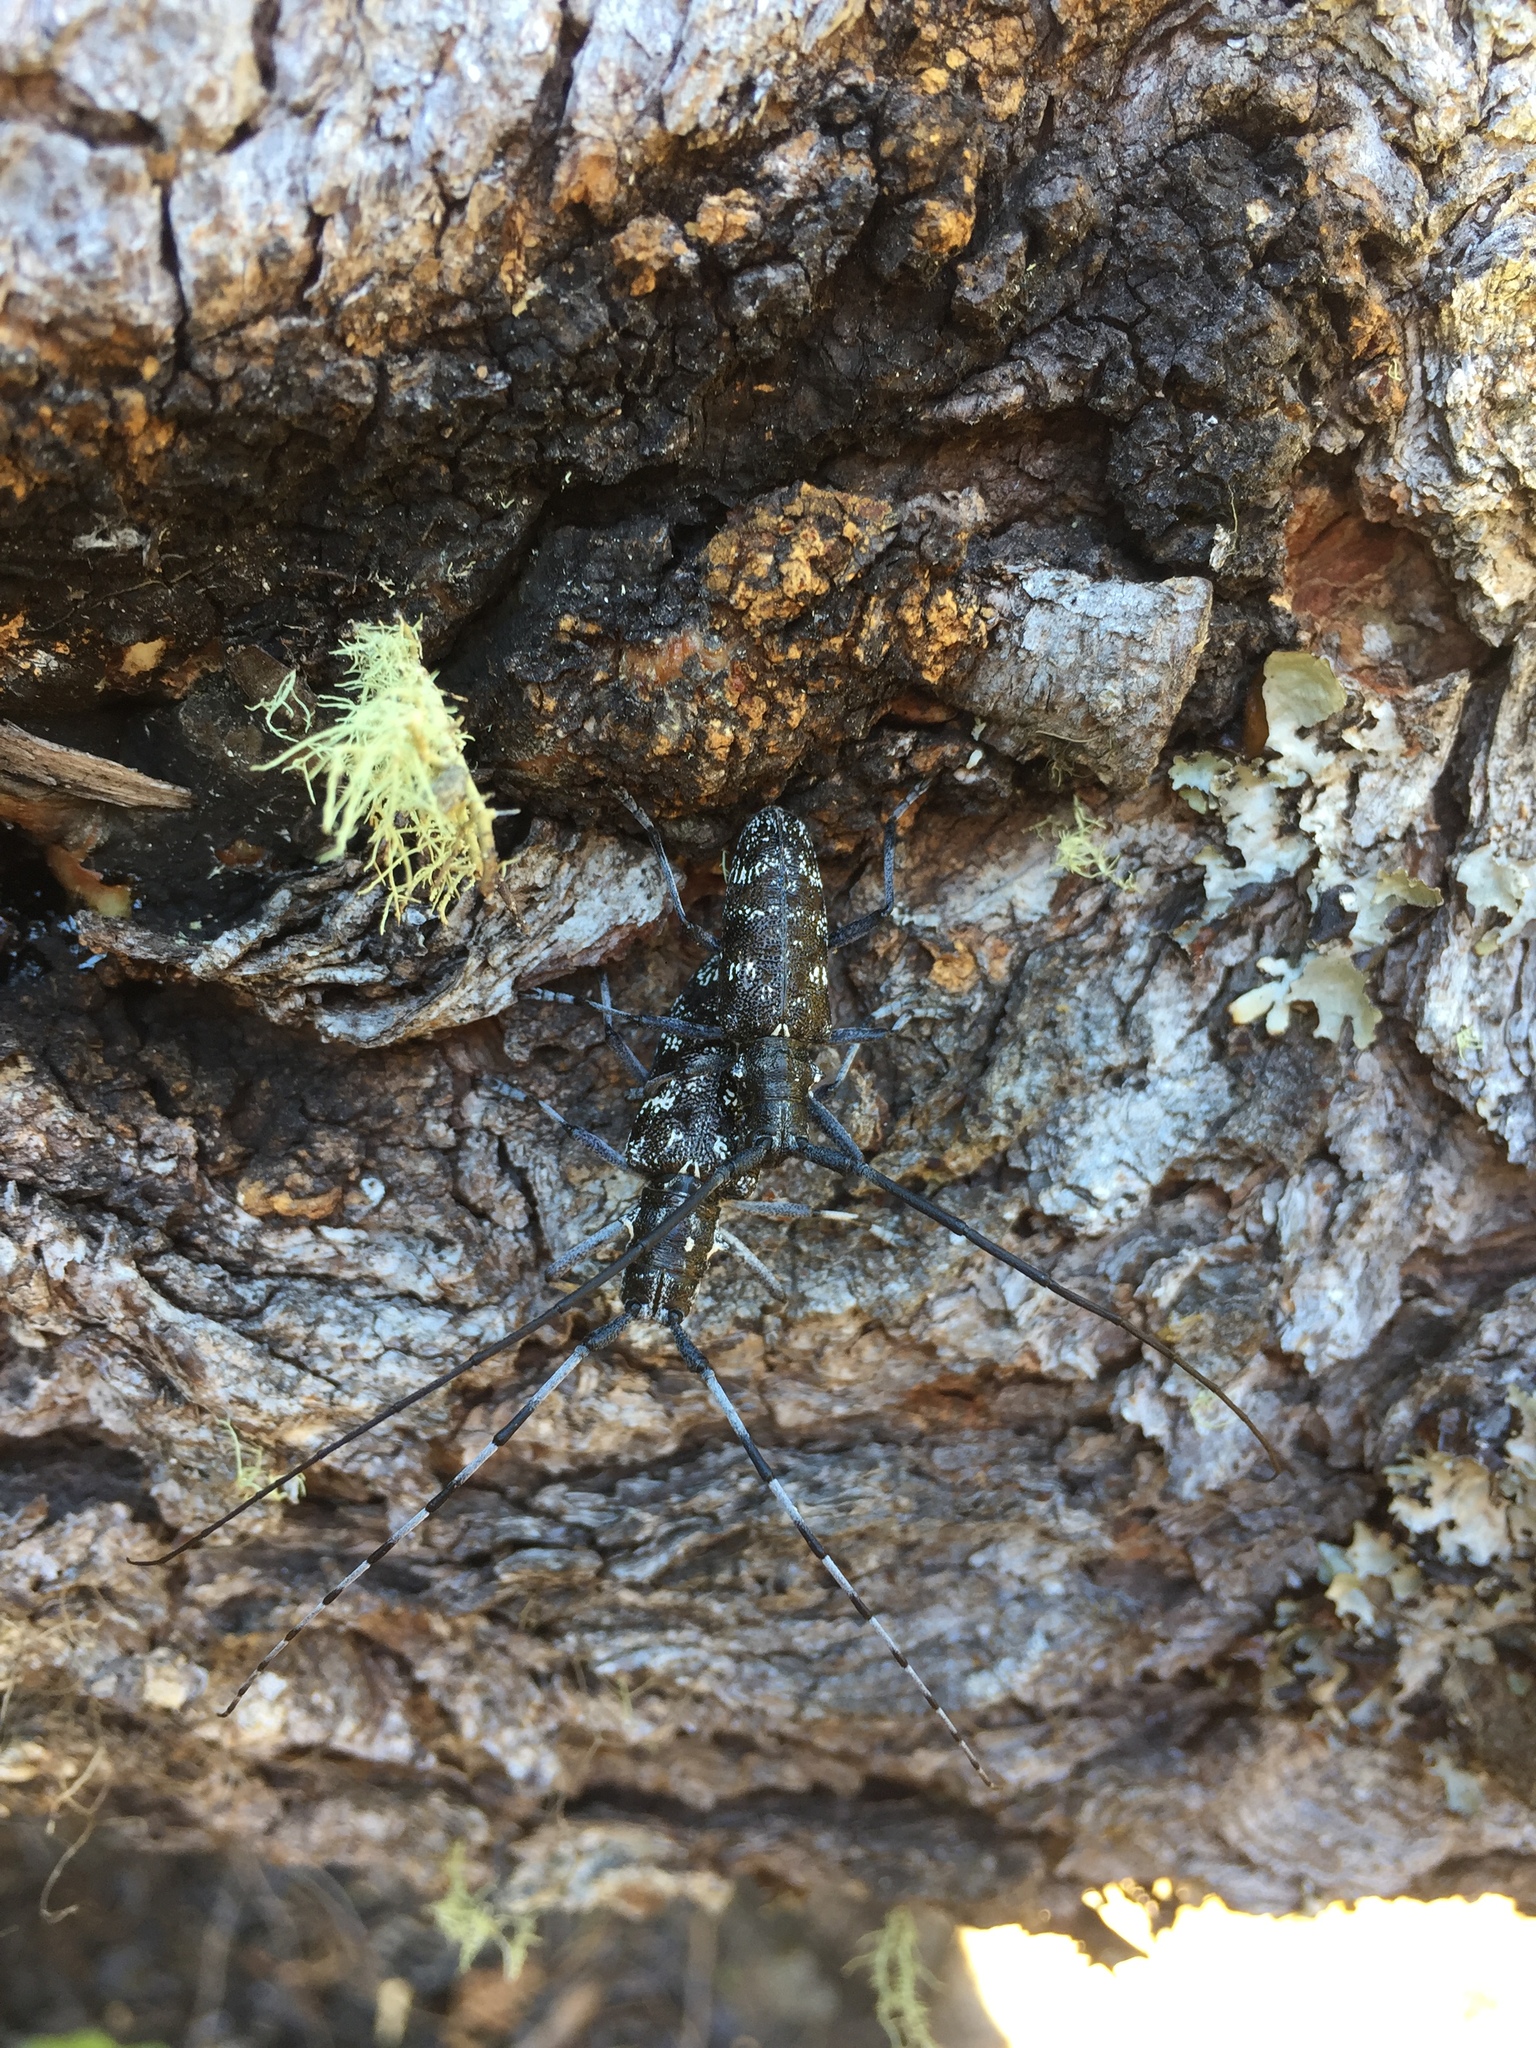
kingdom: Animalia
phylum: Arthropoda
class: Insecta
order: Coleoptera
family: Cerambycidae
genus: Monochamus
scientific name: Monochamus clamator
